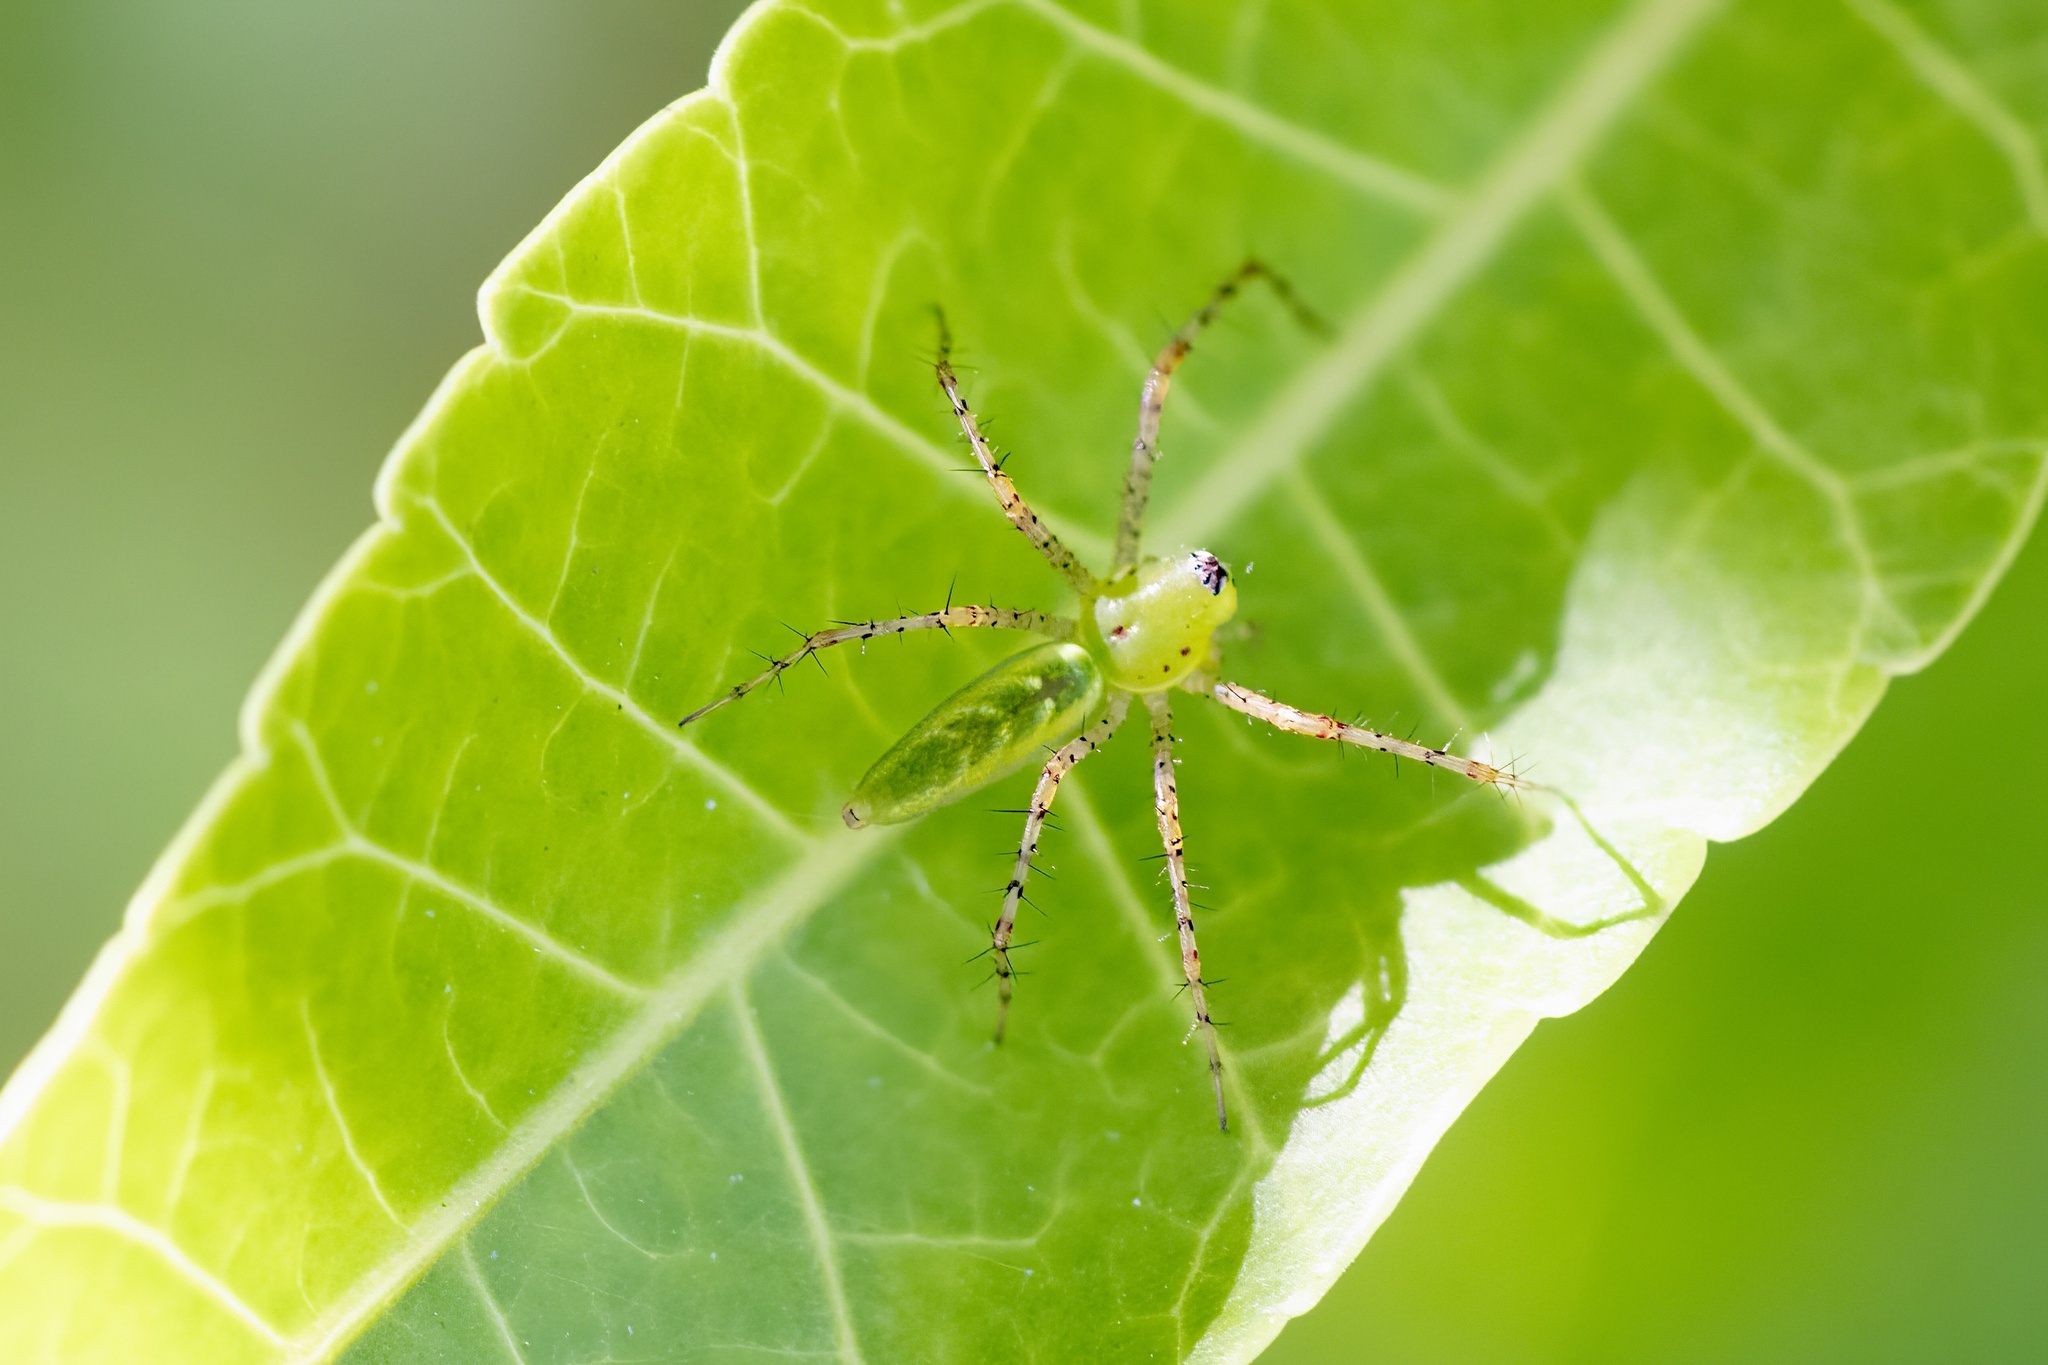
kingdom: Animalia
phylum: Arthropoda
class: Arachnida
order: Araneae
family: Oxyopidae
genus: Peucetia
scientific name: Peucetia viridans
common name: Lynx spiders
